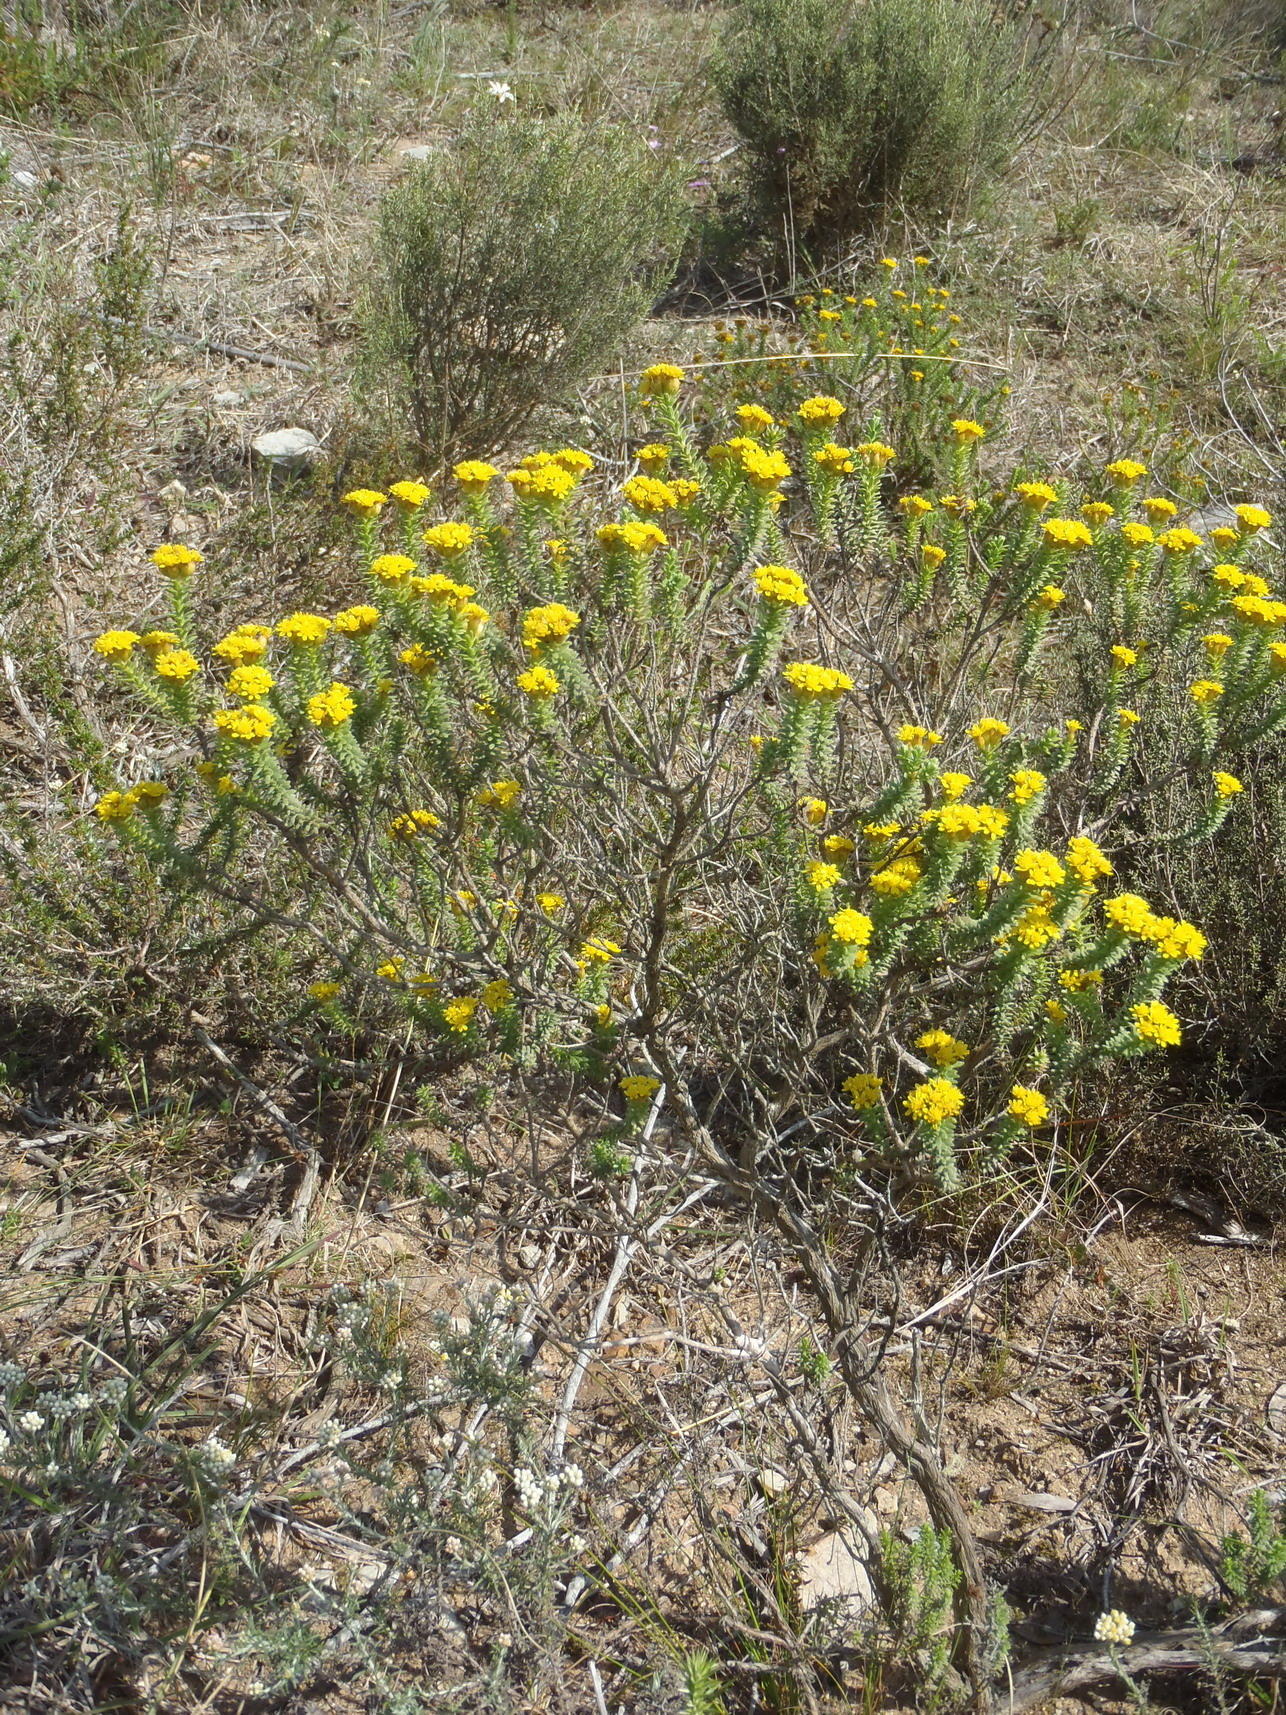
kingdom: Plantae
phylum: Tracheophyta
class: Magnoliopsida
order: Asterales
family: Asteraceae
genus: Oedera
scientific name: Oedera genistifolia
